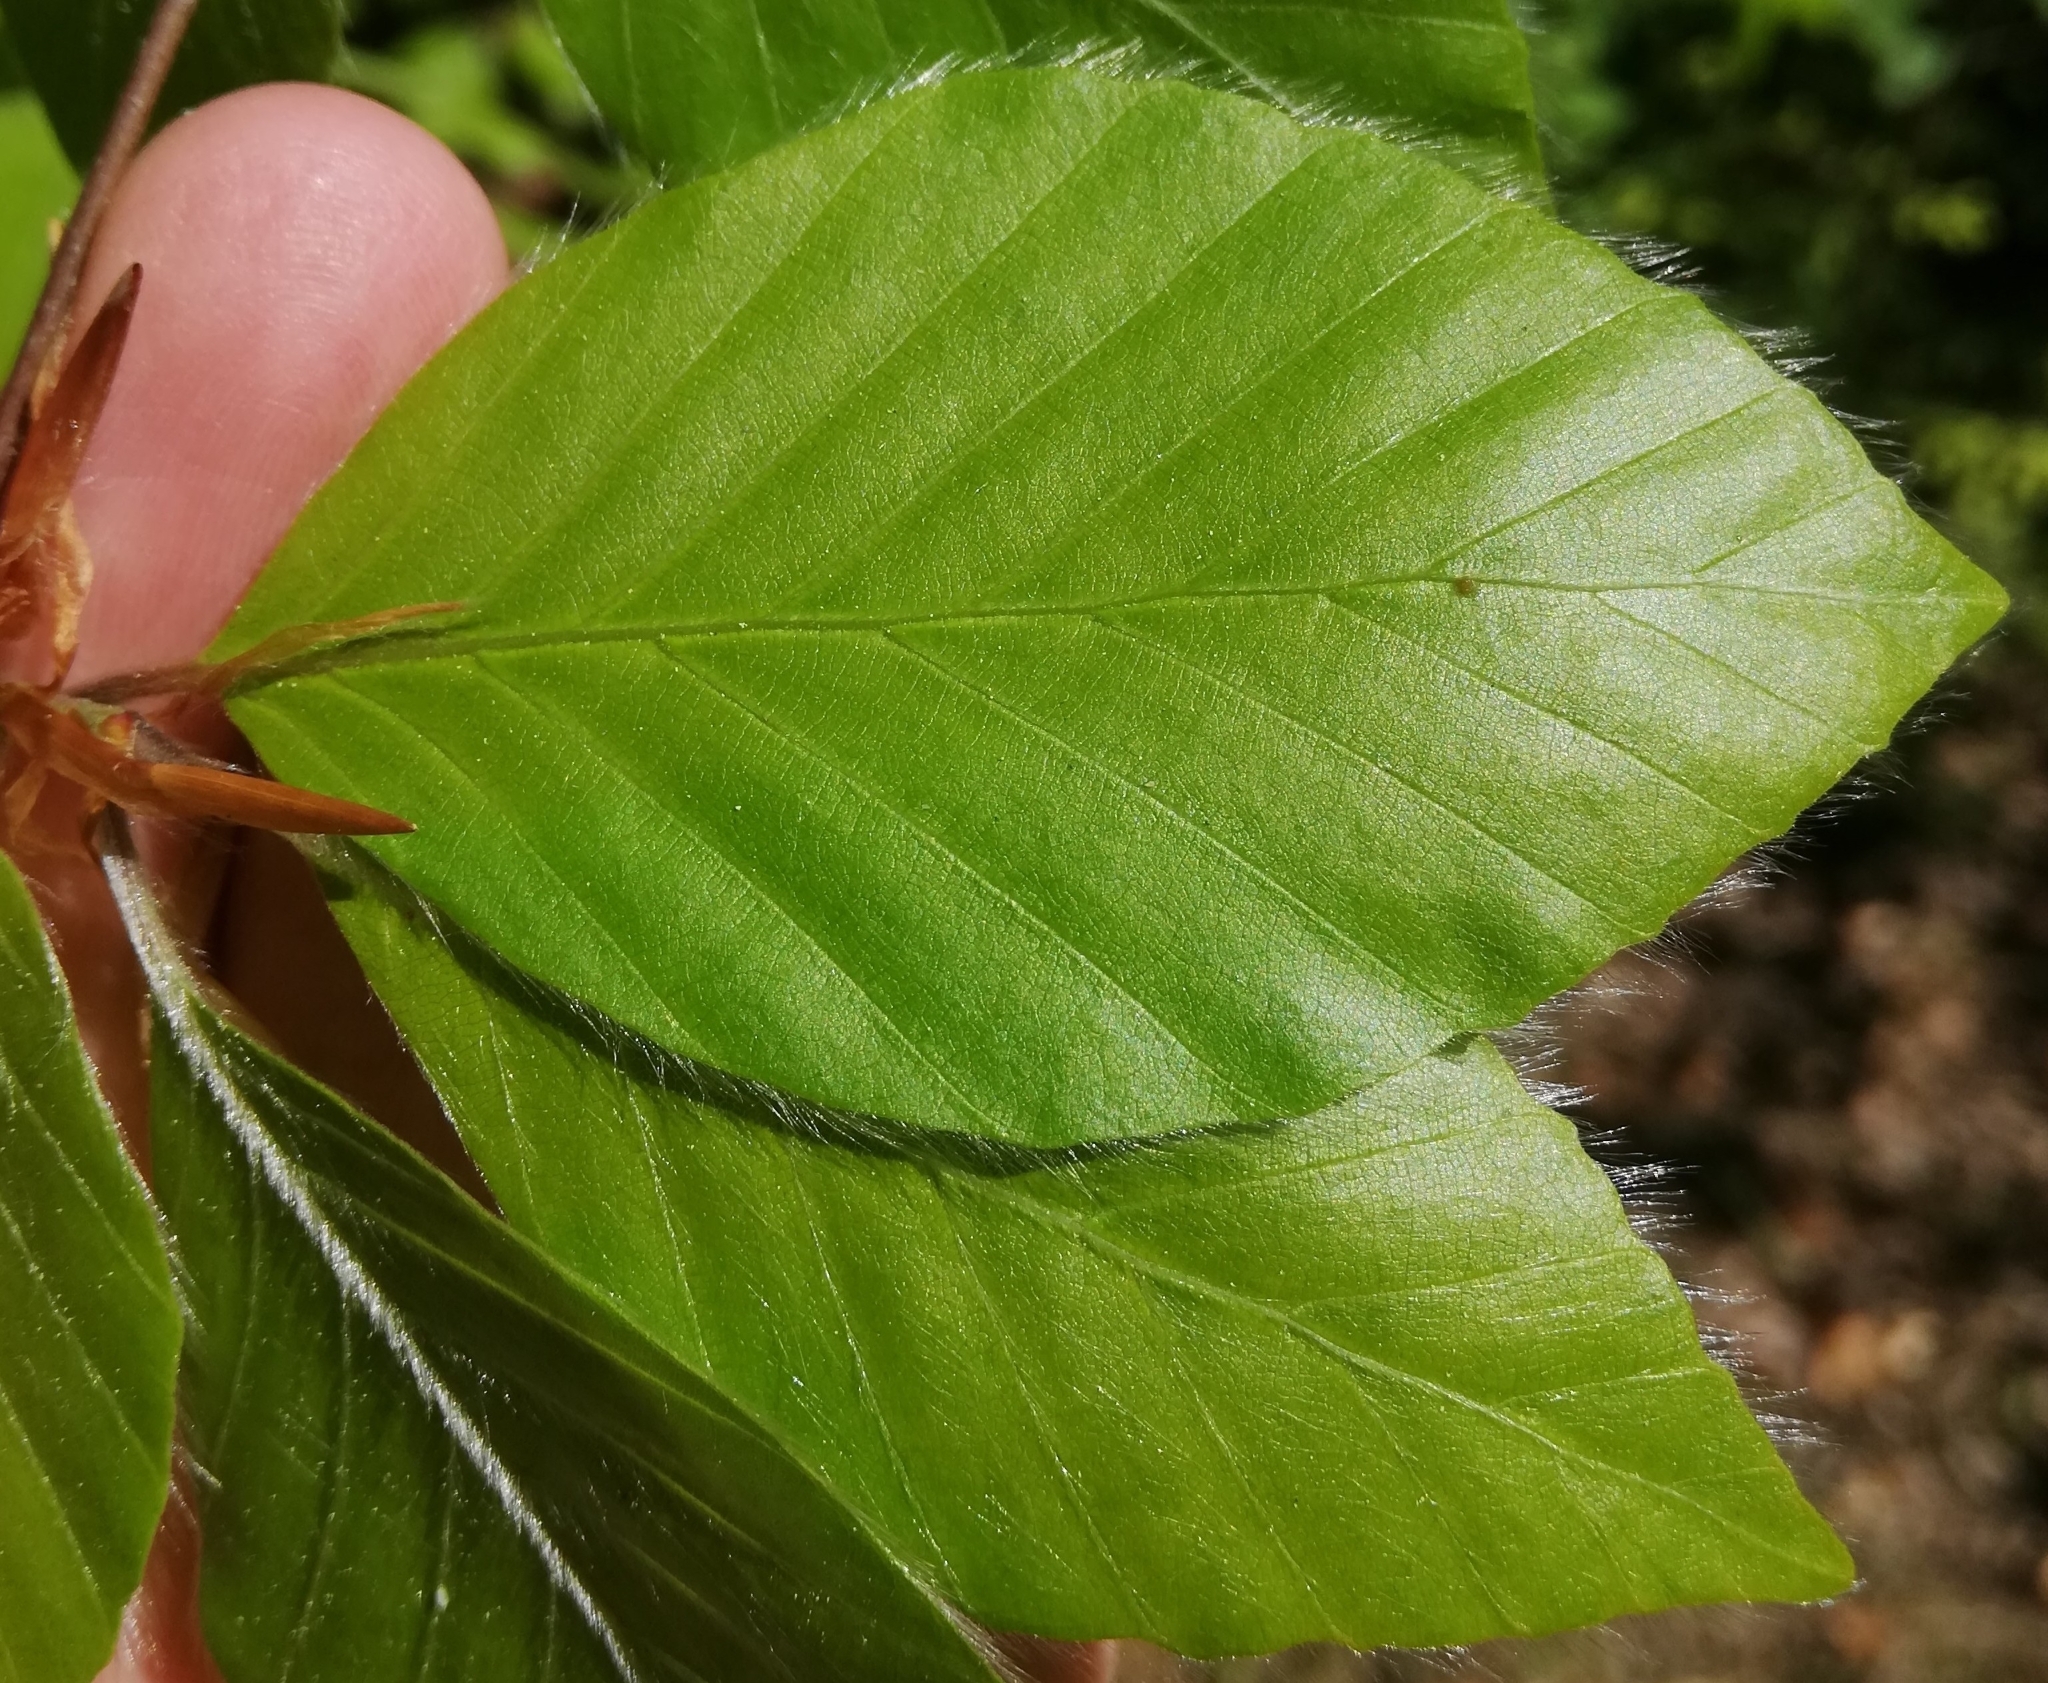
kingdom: Plantae
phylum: Tracheophyta
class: Magnoliopsida
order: Fagales
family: Fagaceae
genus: Fagus
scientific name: Fagus sylvatica
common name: Beech
